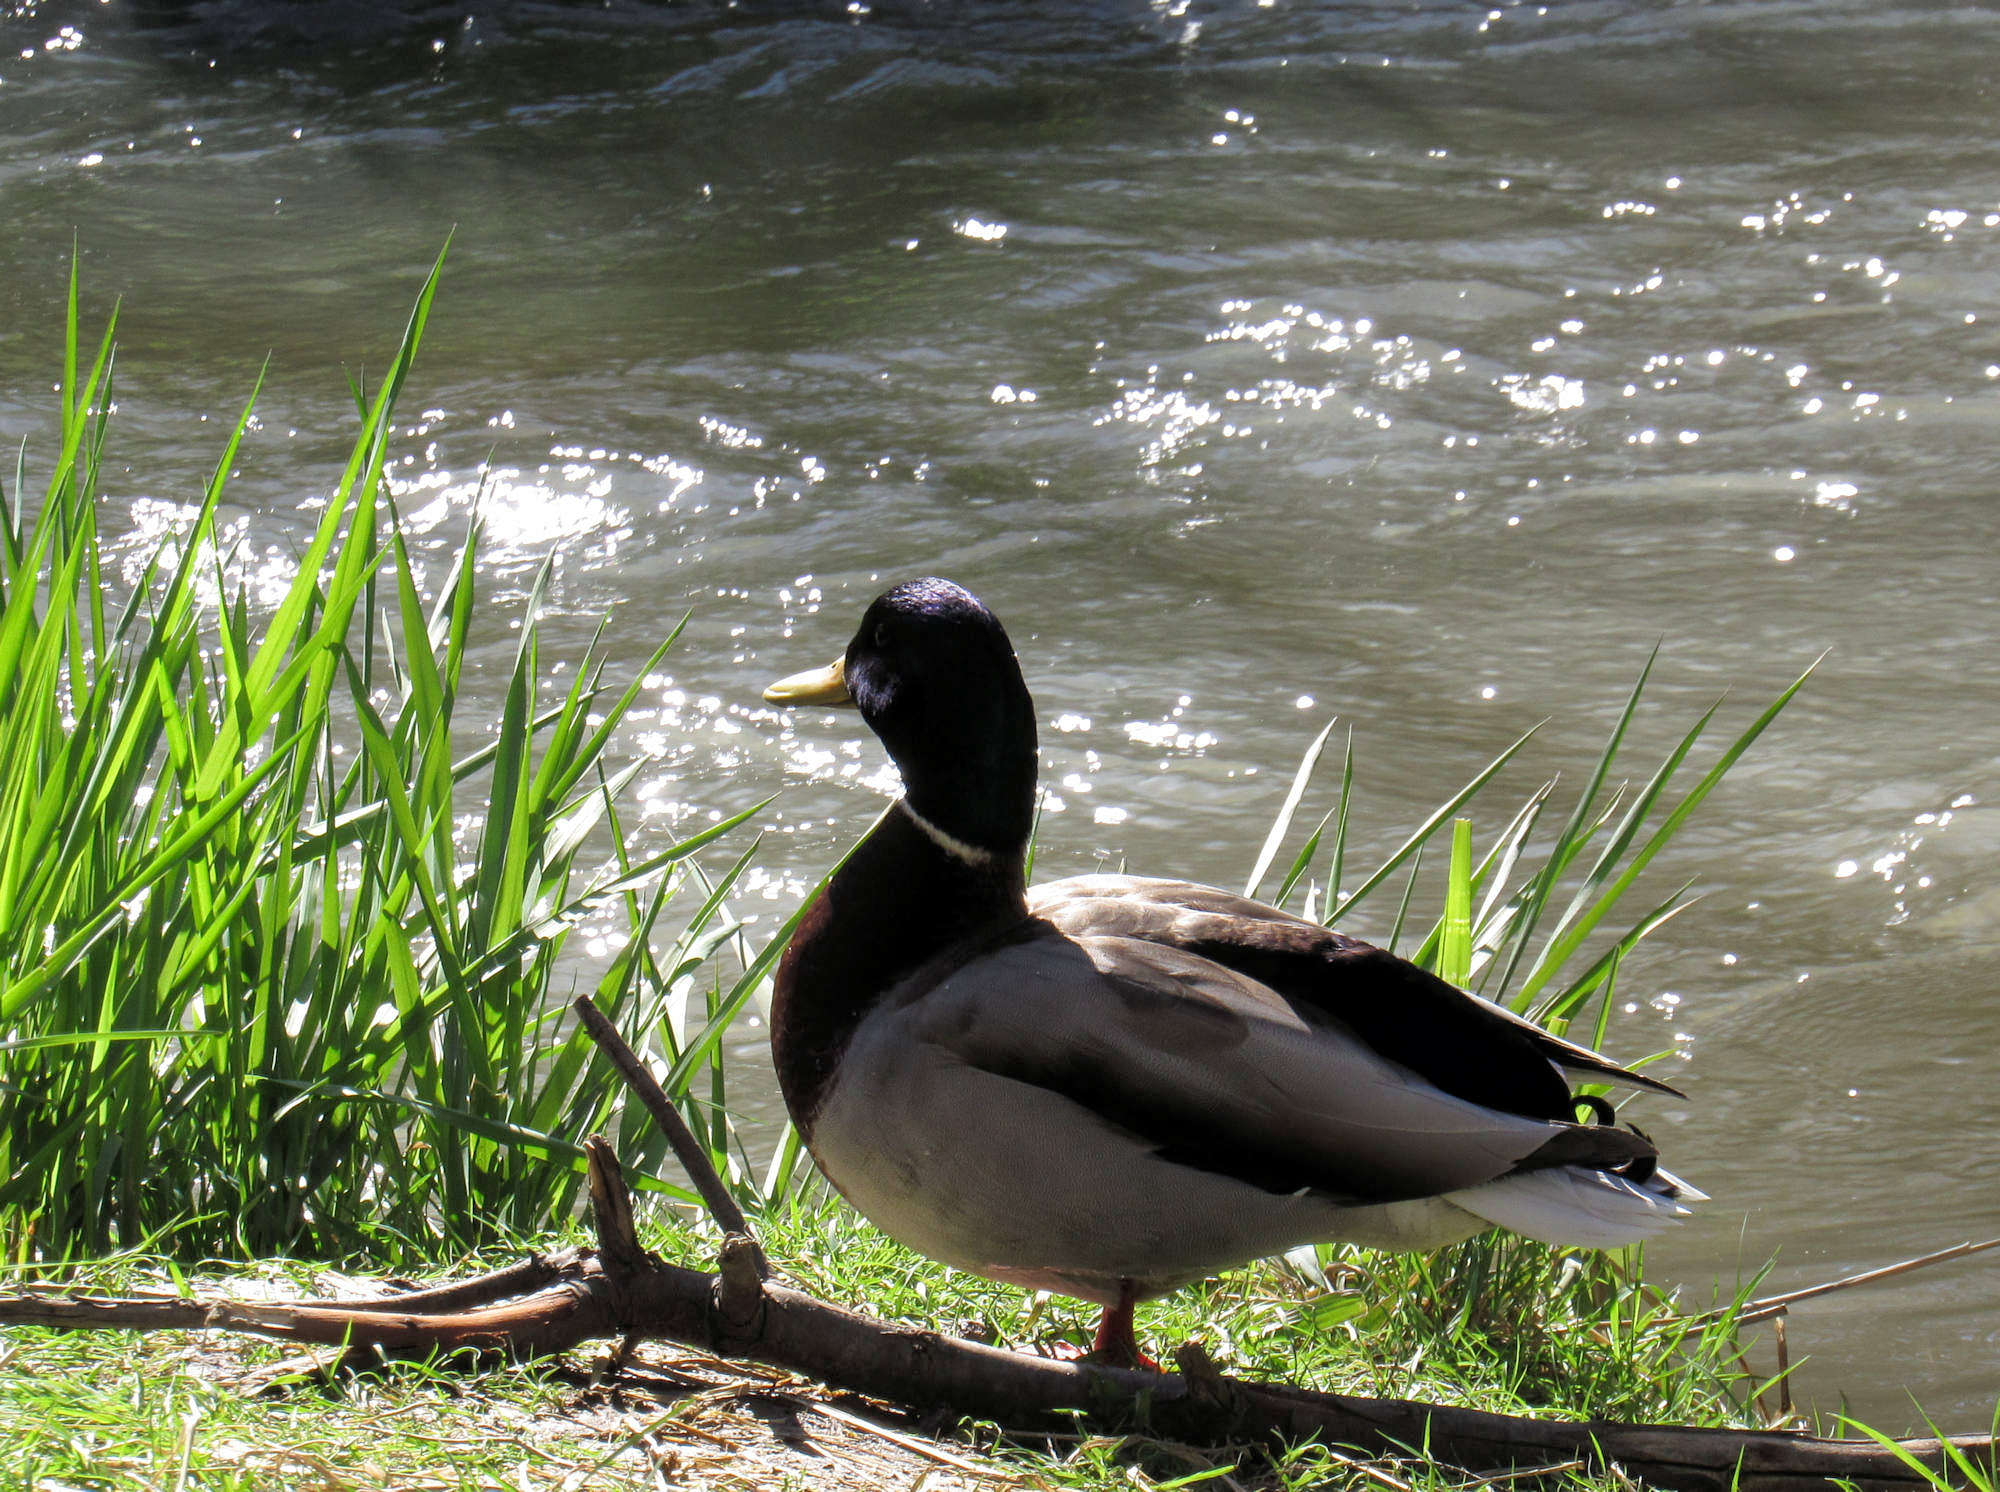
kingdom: Animalia
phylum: Chordata
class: Aves
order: Anseriformes
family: Anatidae
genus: Anas
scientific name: Anas platyrhynchos
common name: Mallard
